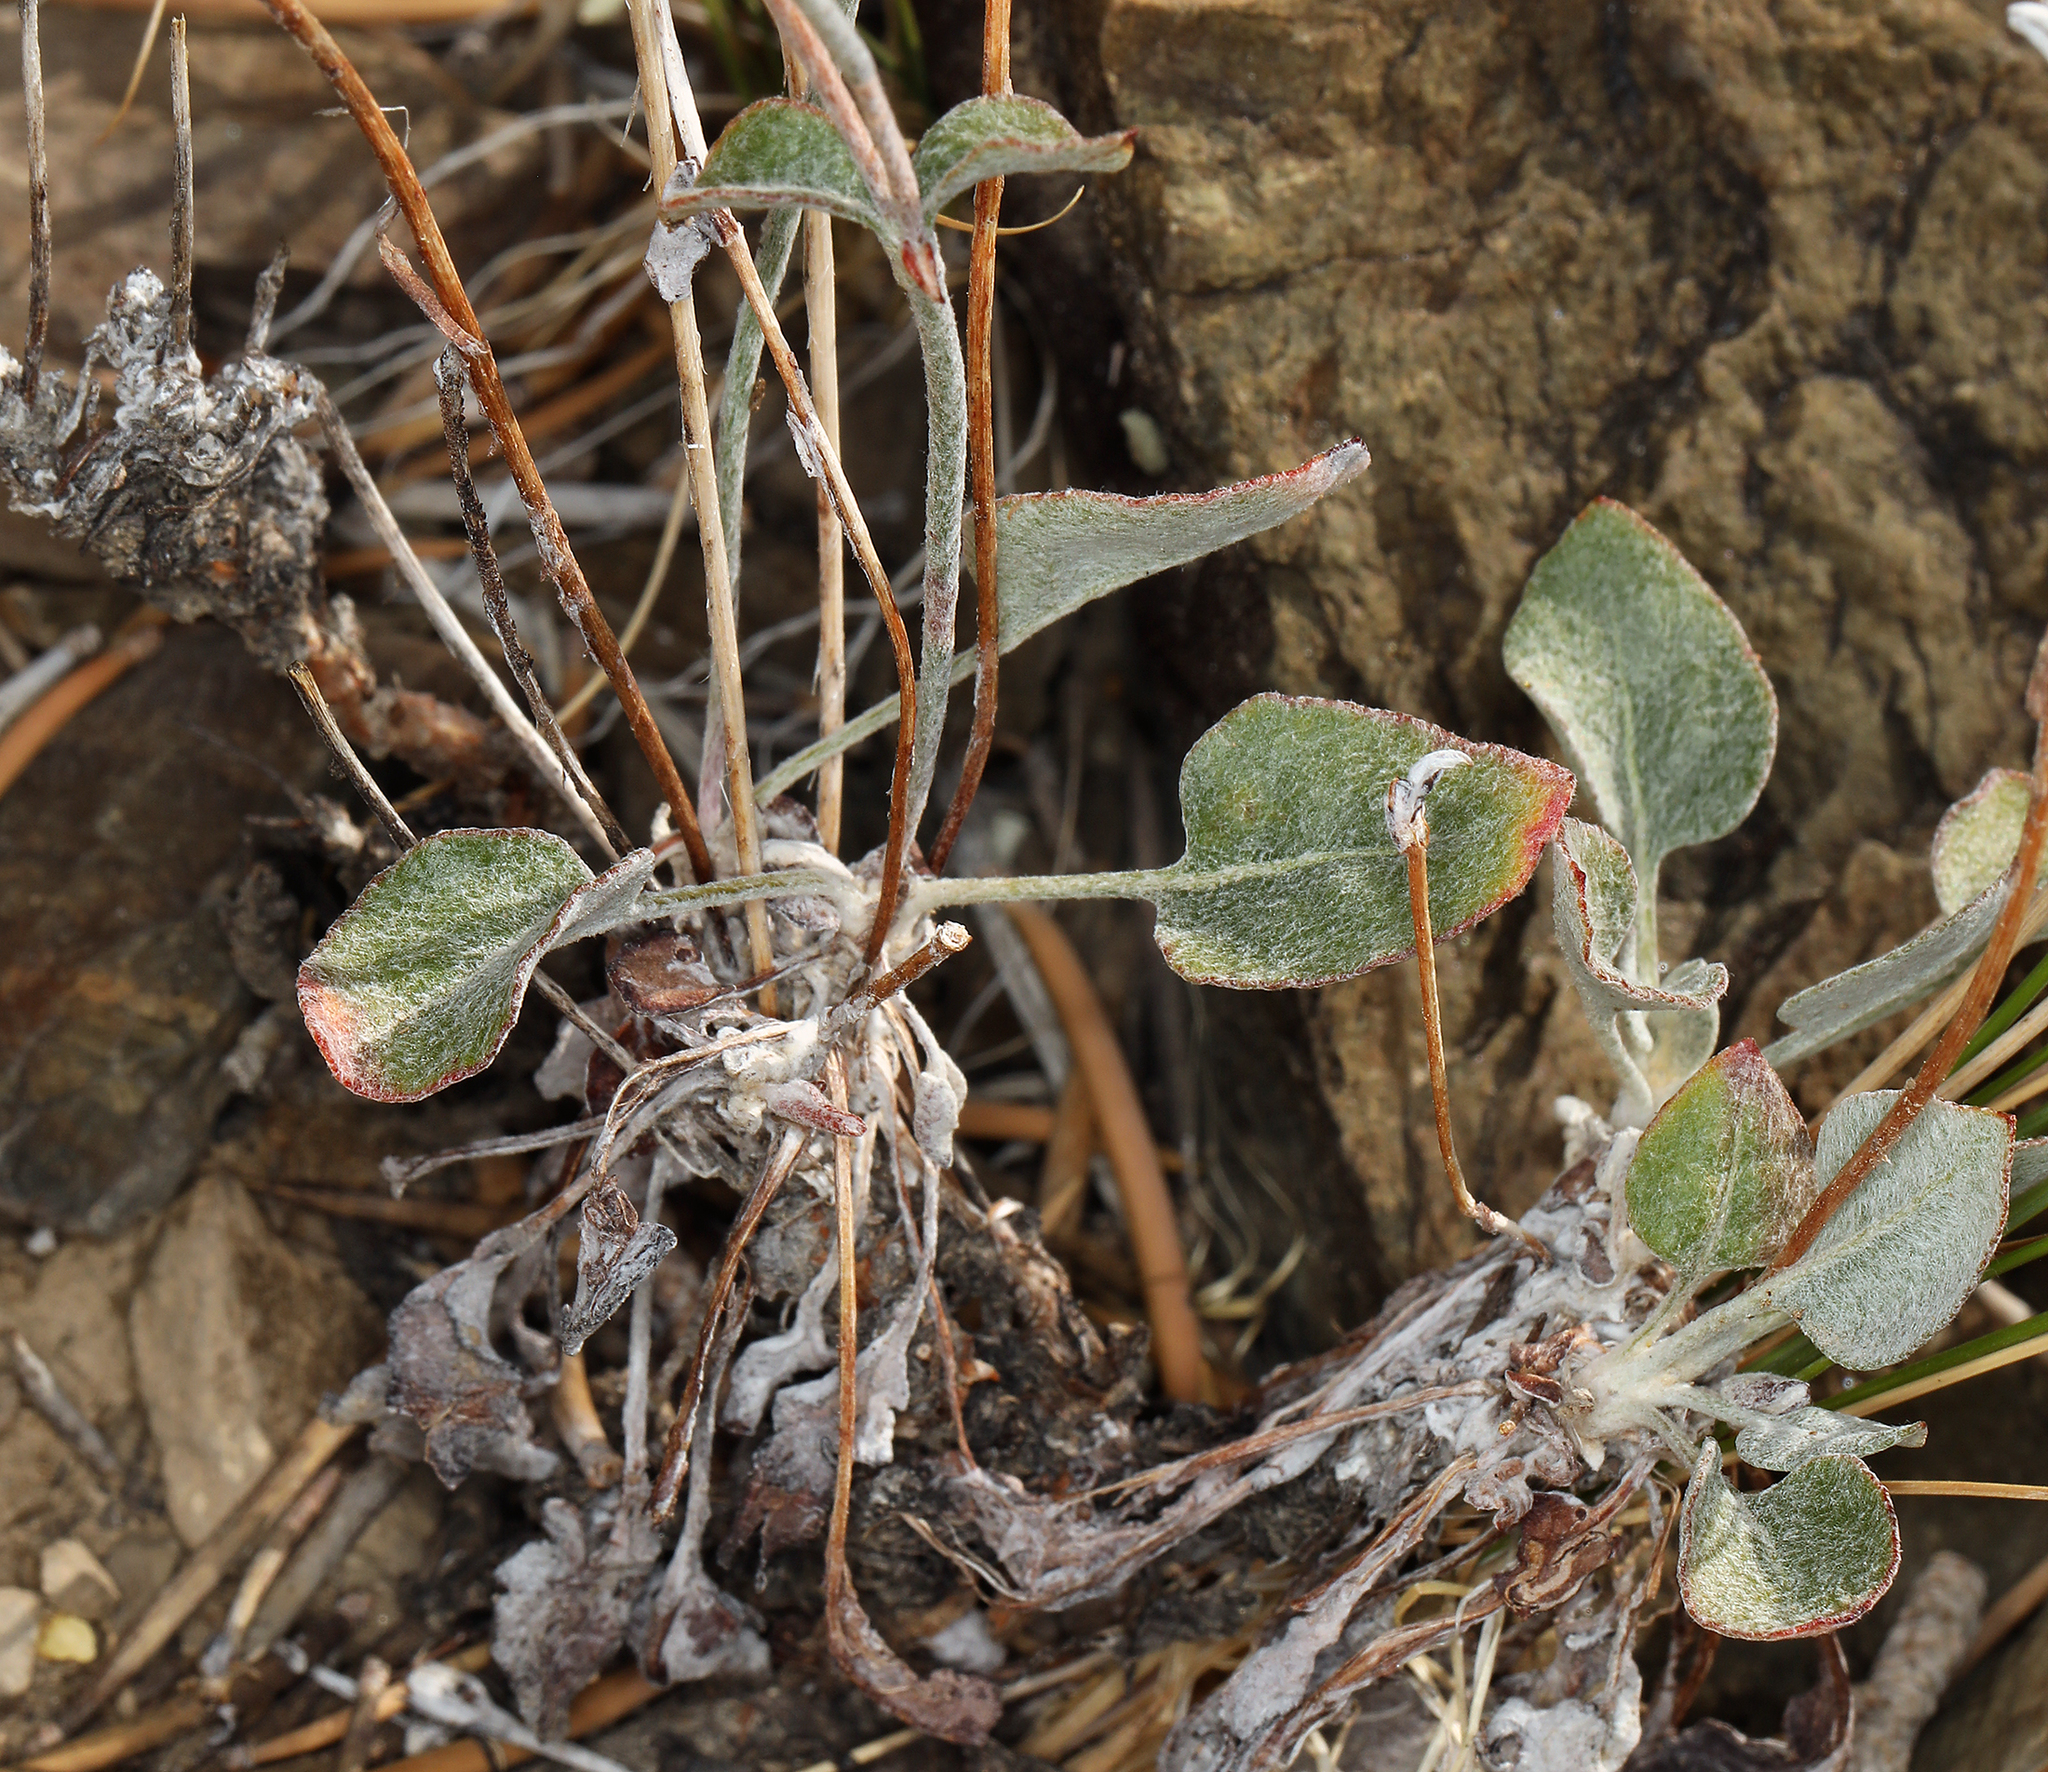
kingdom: Plantae
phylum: Tracheophyta
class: Magnoliopsida
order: Caryophyllales
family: Polygonaceae
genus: Eriogonum
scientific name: Eriogonum panamintense
